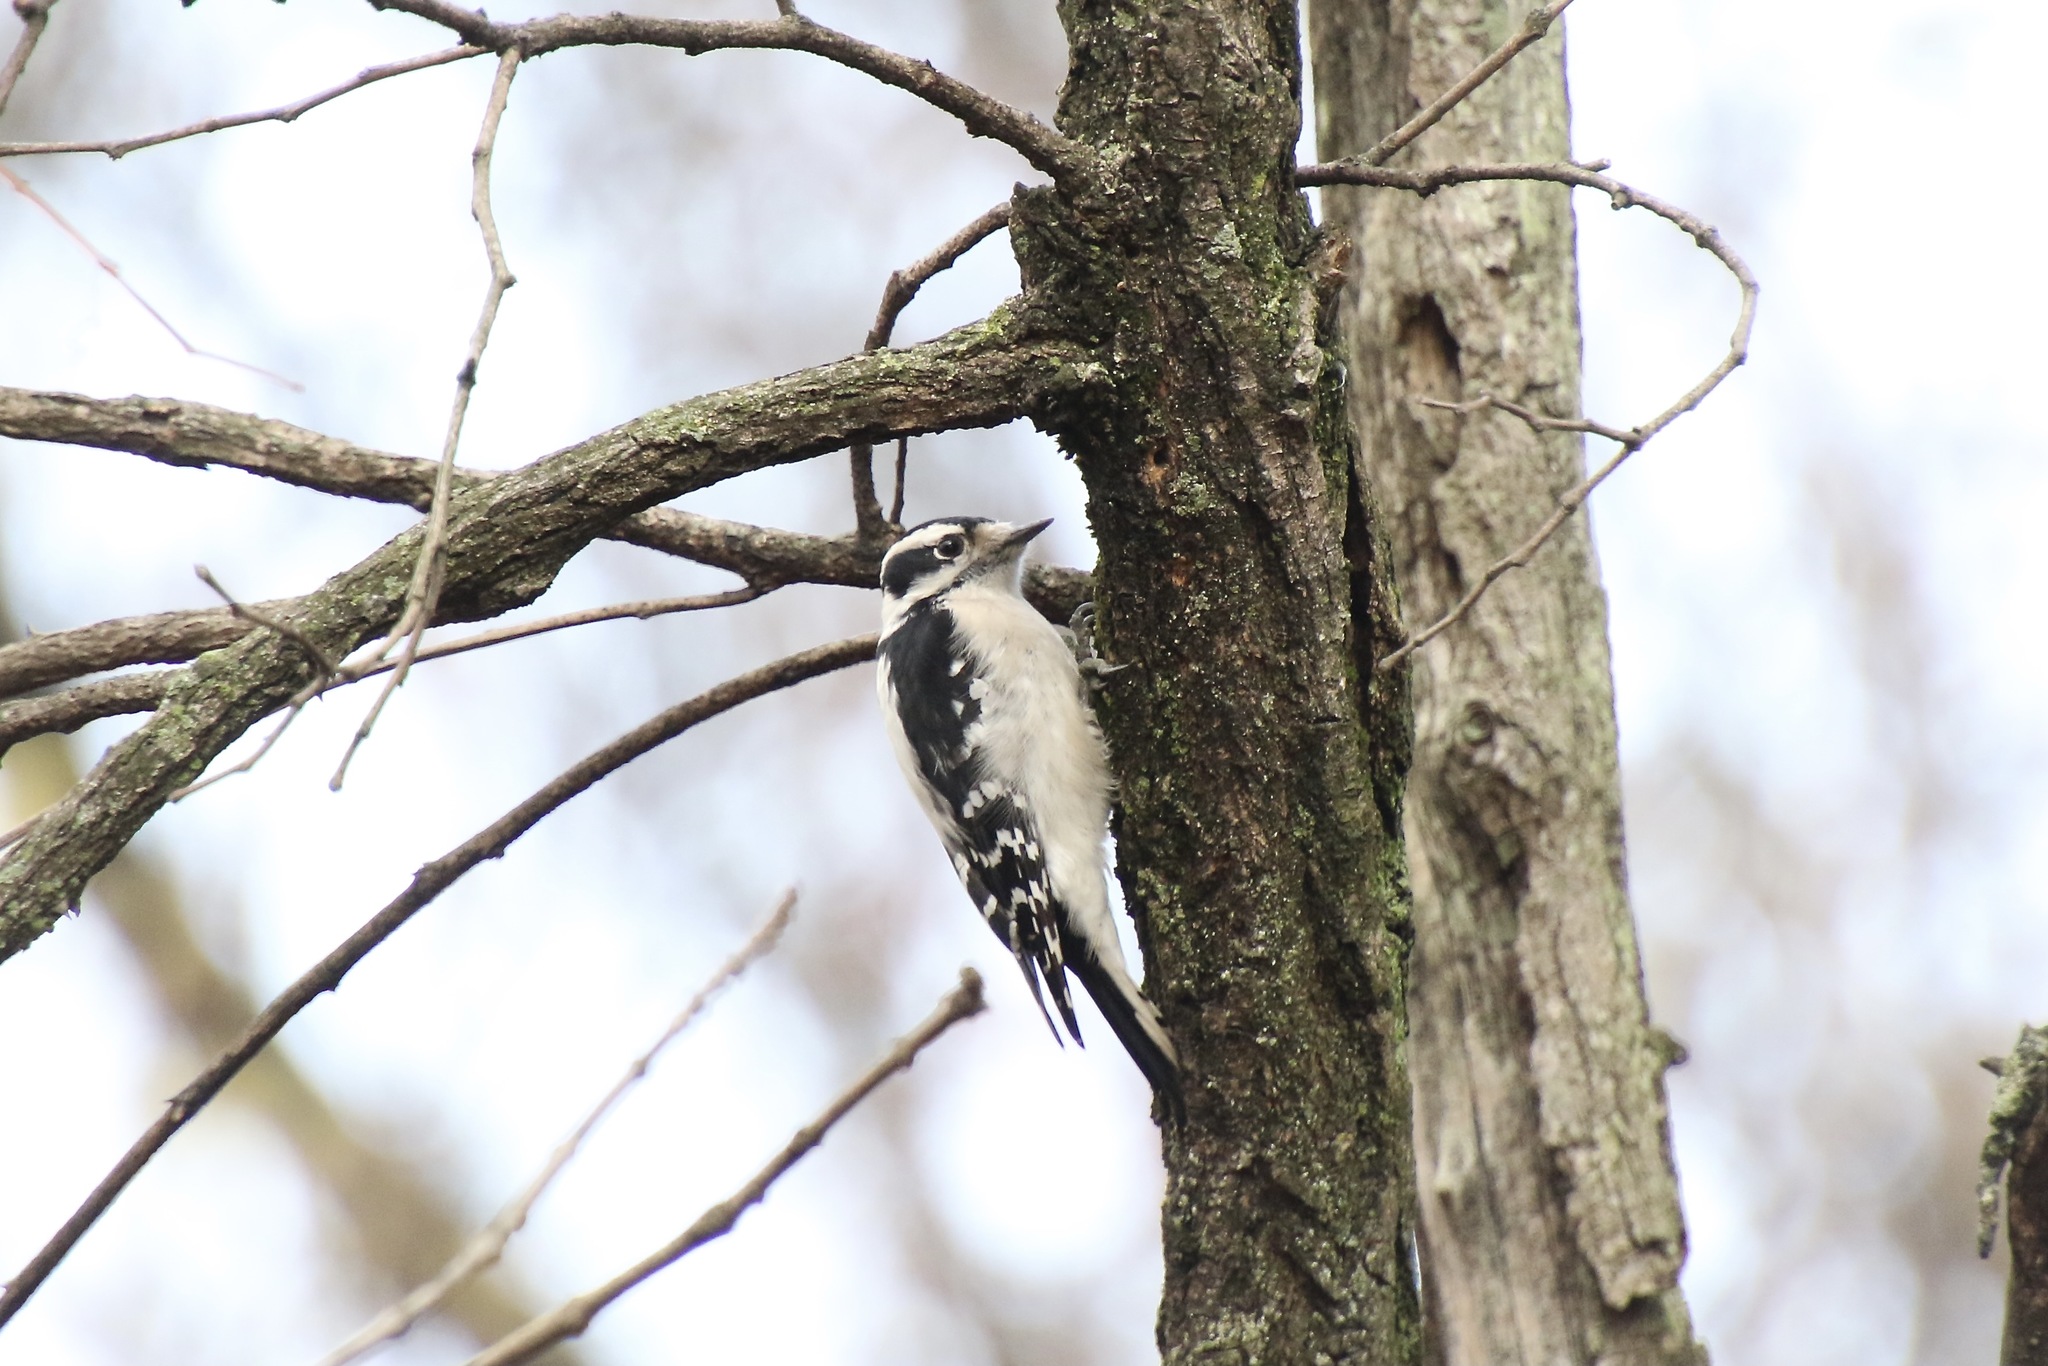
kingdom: Animalia
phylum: Chordata
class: Aves
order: Piciformes
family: Picidae
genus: Dryobates
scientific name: Dryobates pubescens
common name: Downy woodpecker
